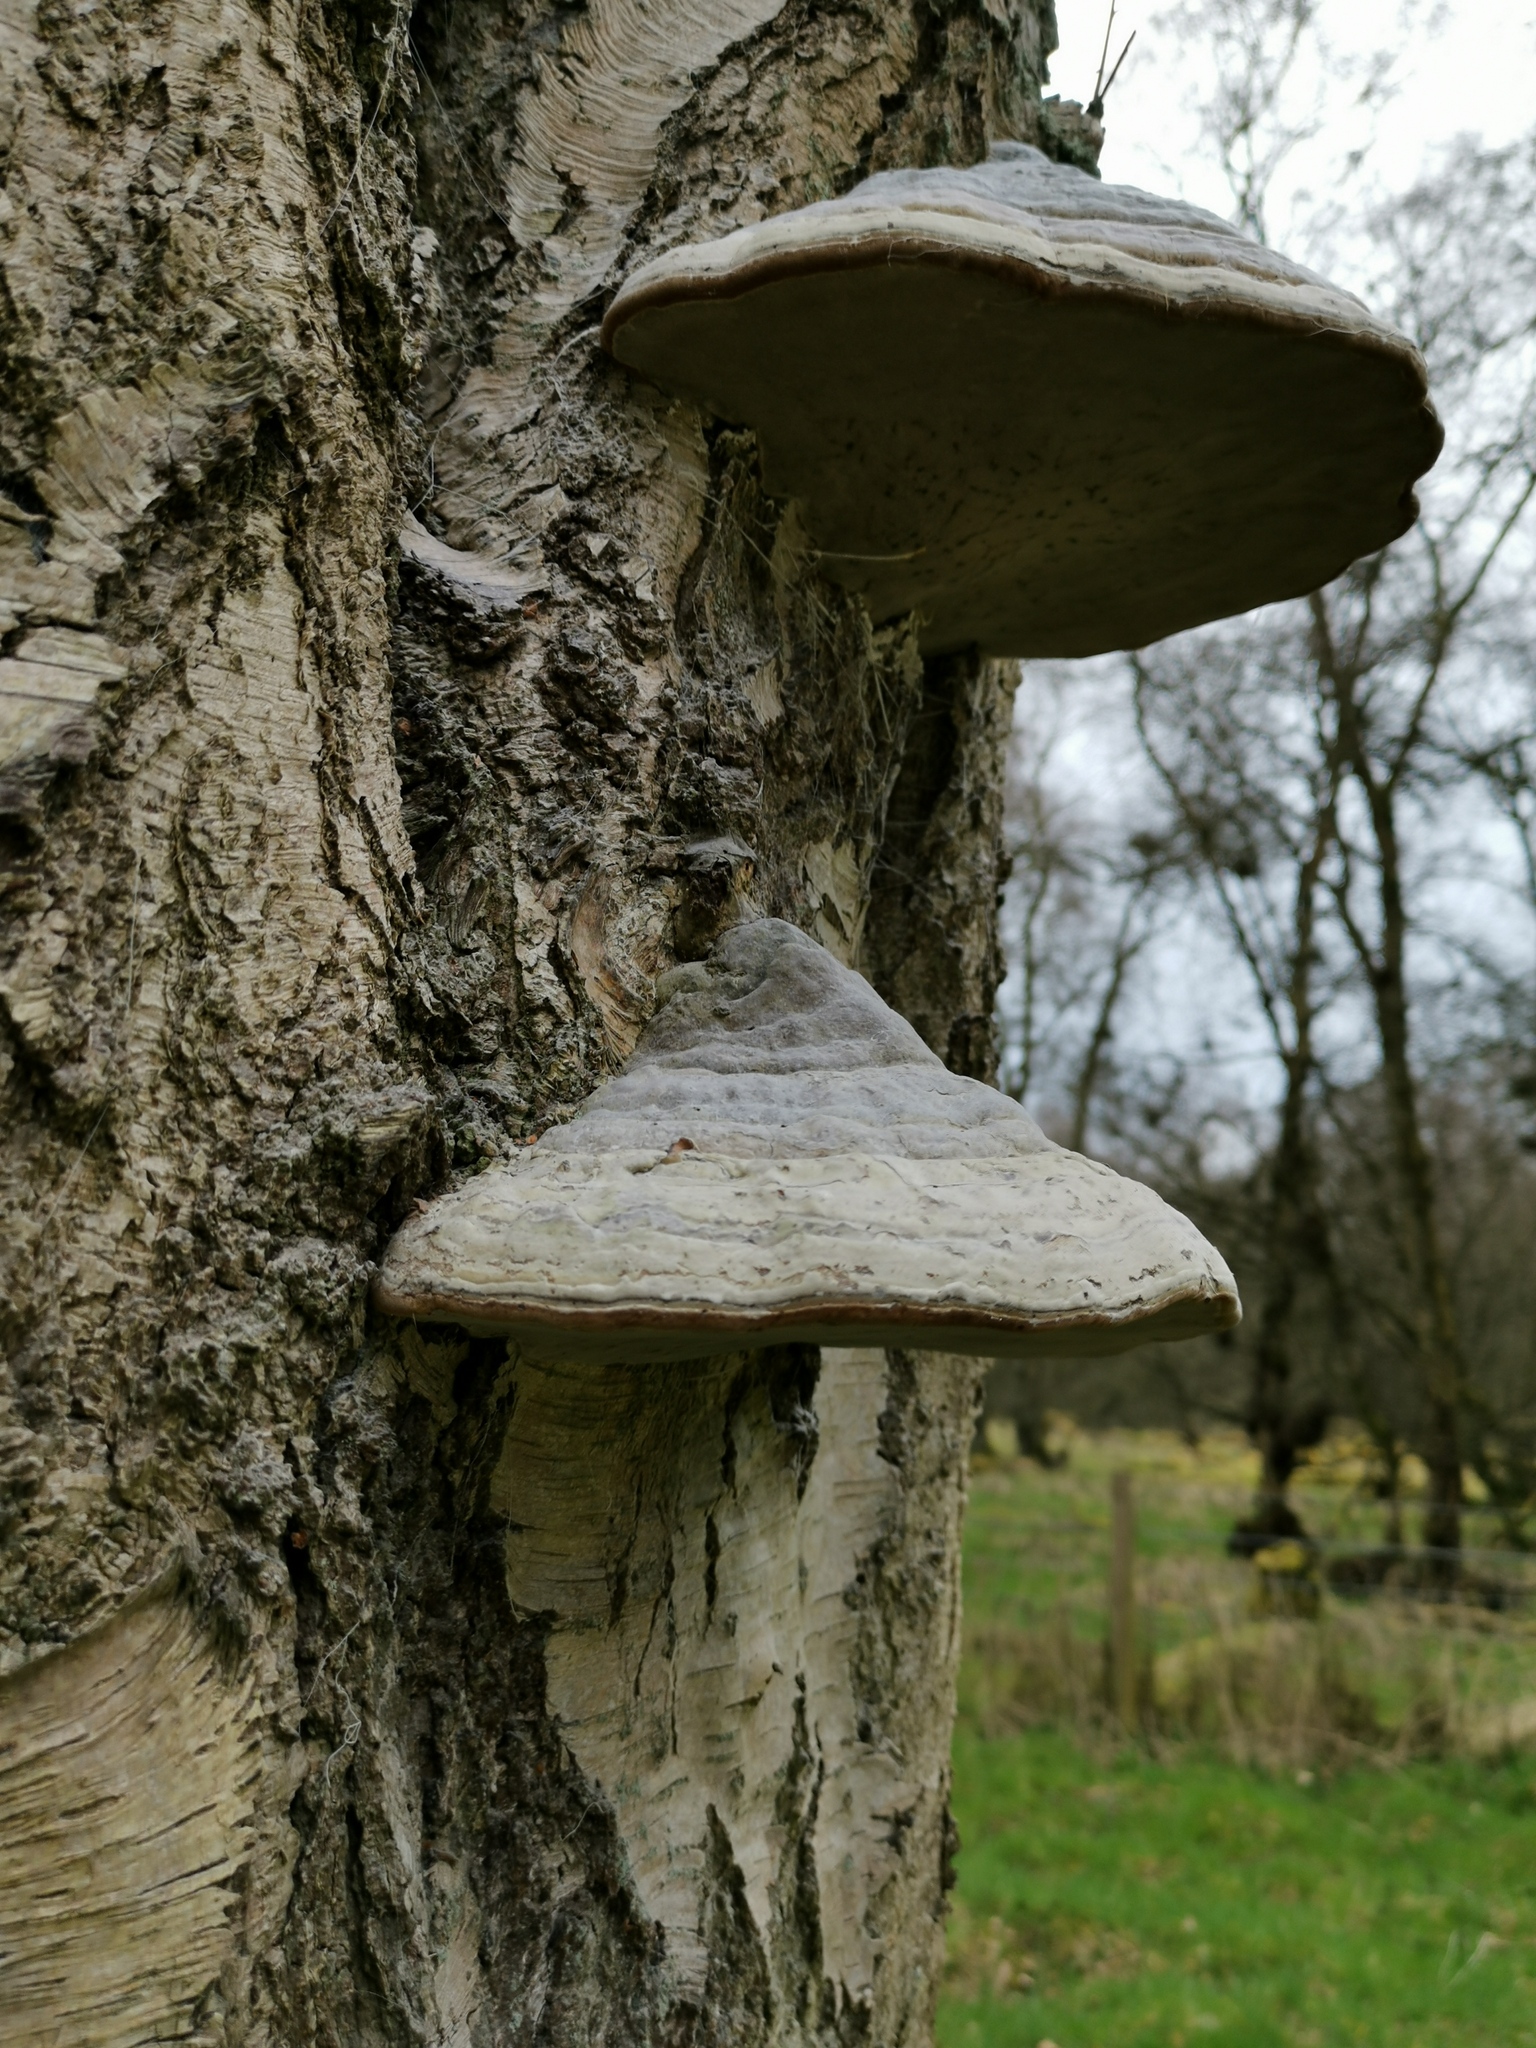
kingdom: Fungi
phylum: Basidiomycota
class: Agaricomycetes
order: Polyporales
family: Polyporaceae
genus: Fomes
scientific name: Fomes fomentarius
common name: Hoof fungus
